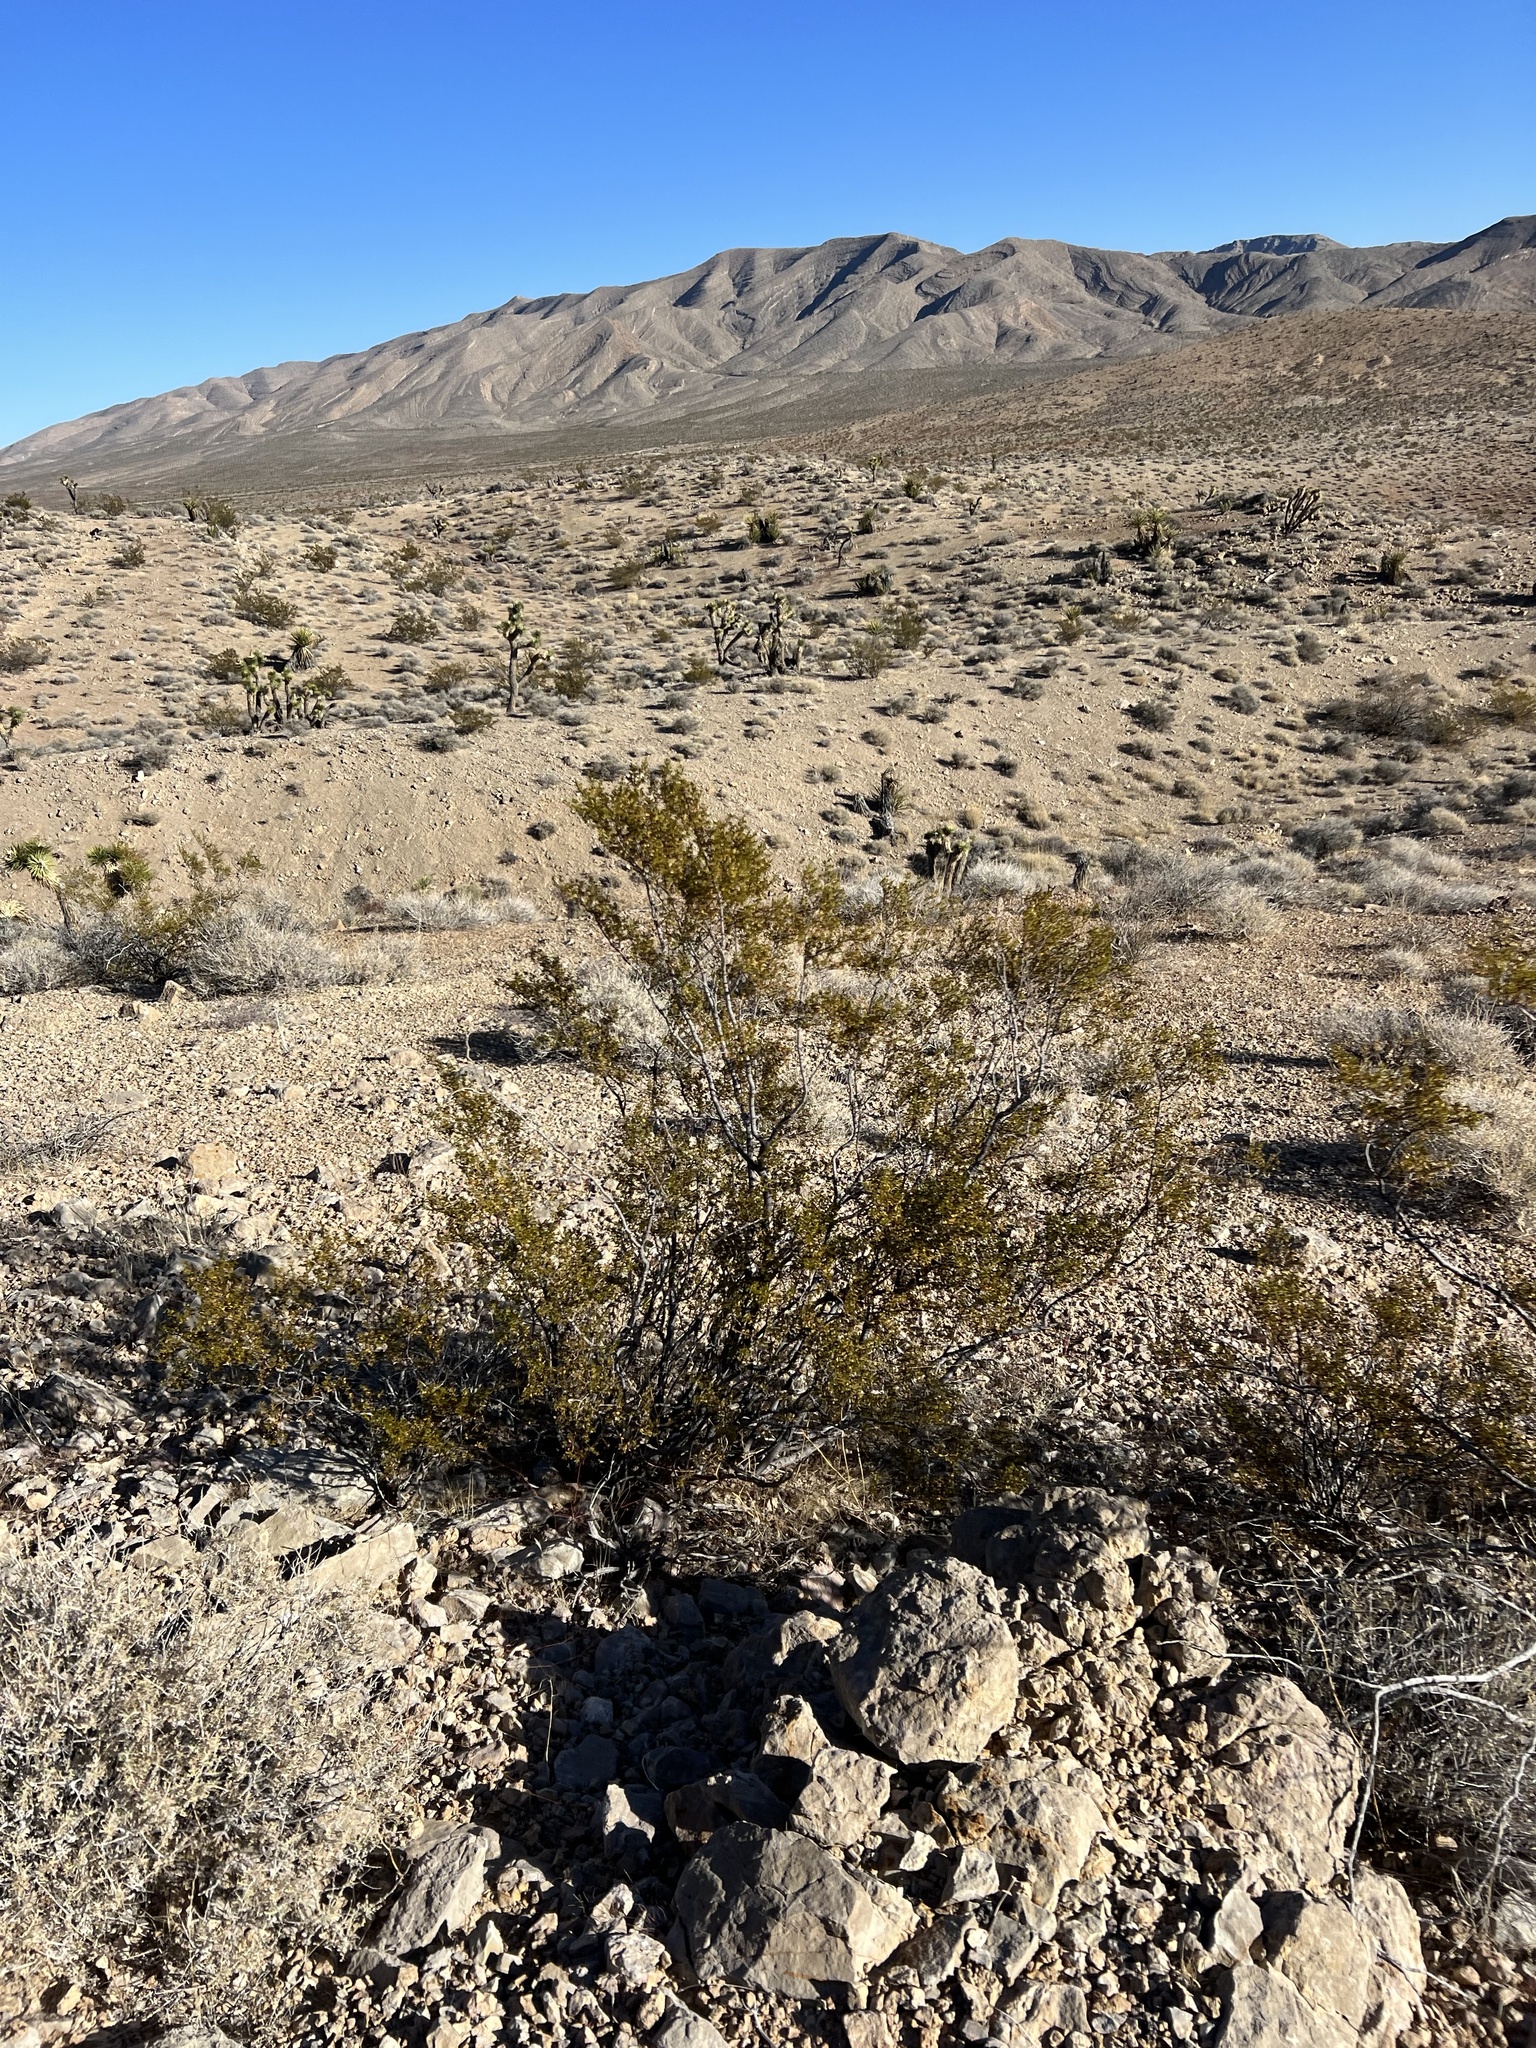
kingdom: Plantae
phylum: Tracheophyta
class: Magnoliopsida
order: Zygophyllales
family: Zygophyllaceae
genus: Larrea
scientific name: Larrea tridentata
